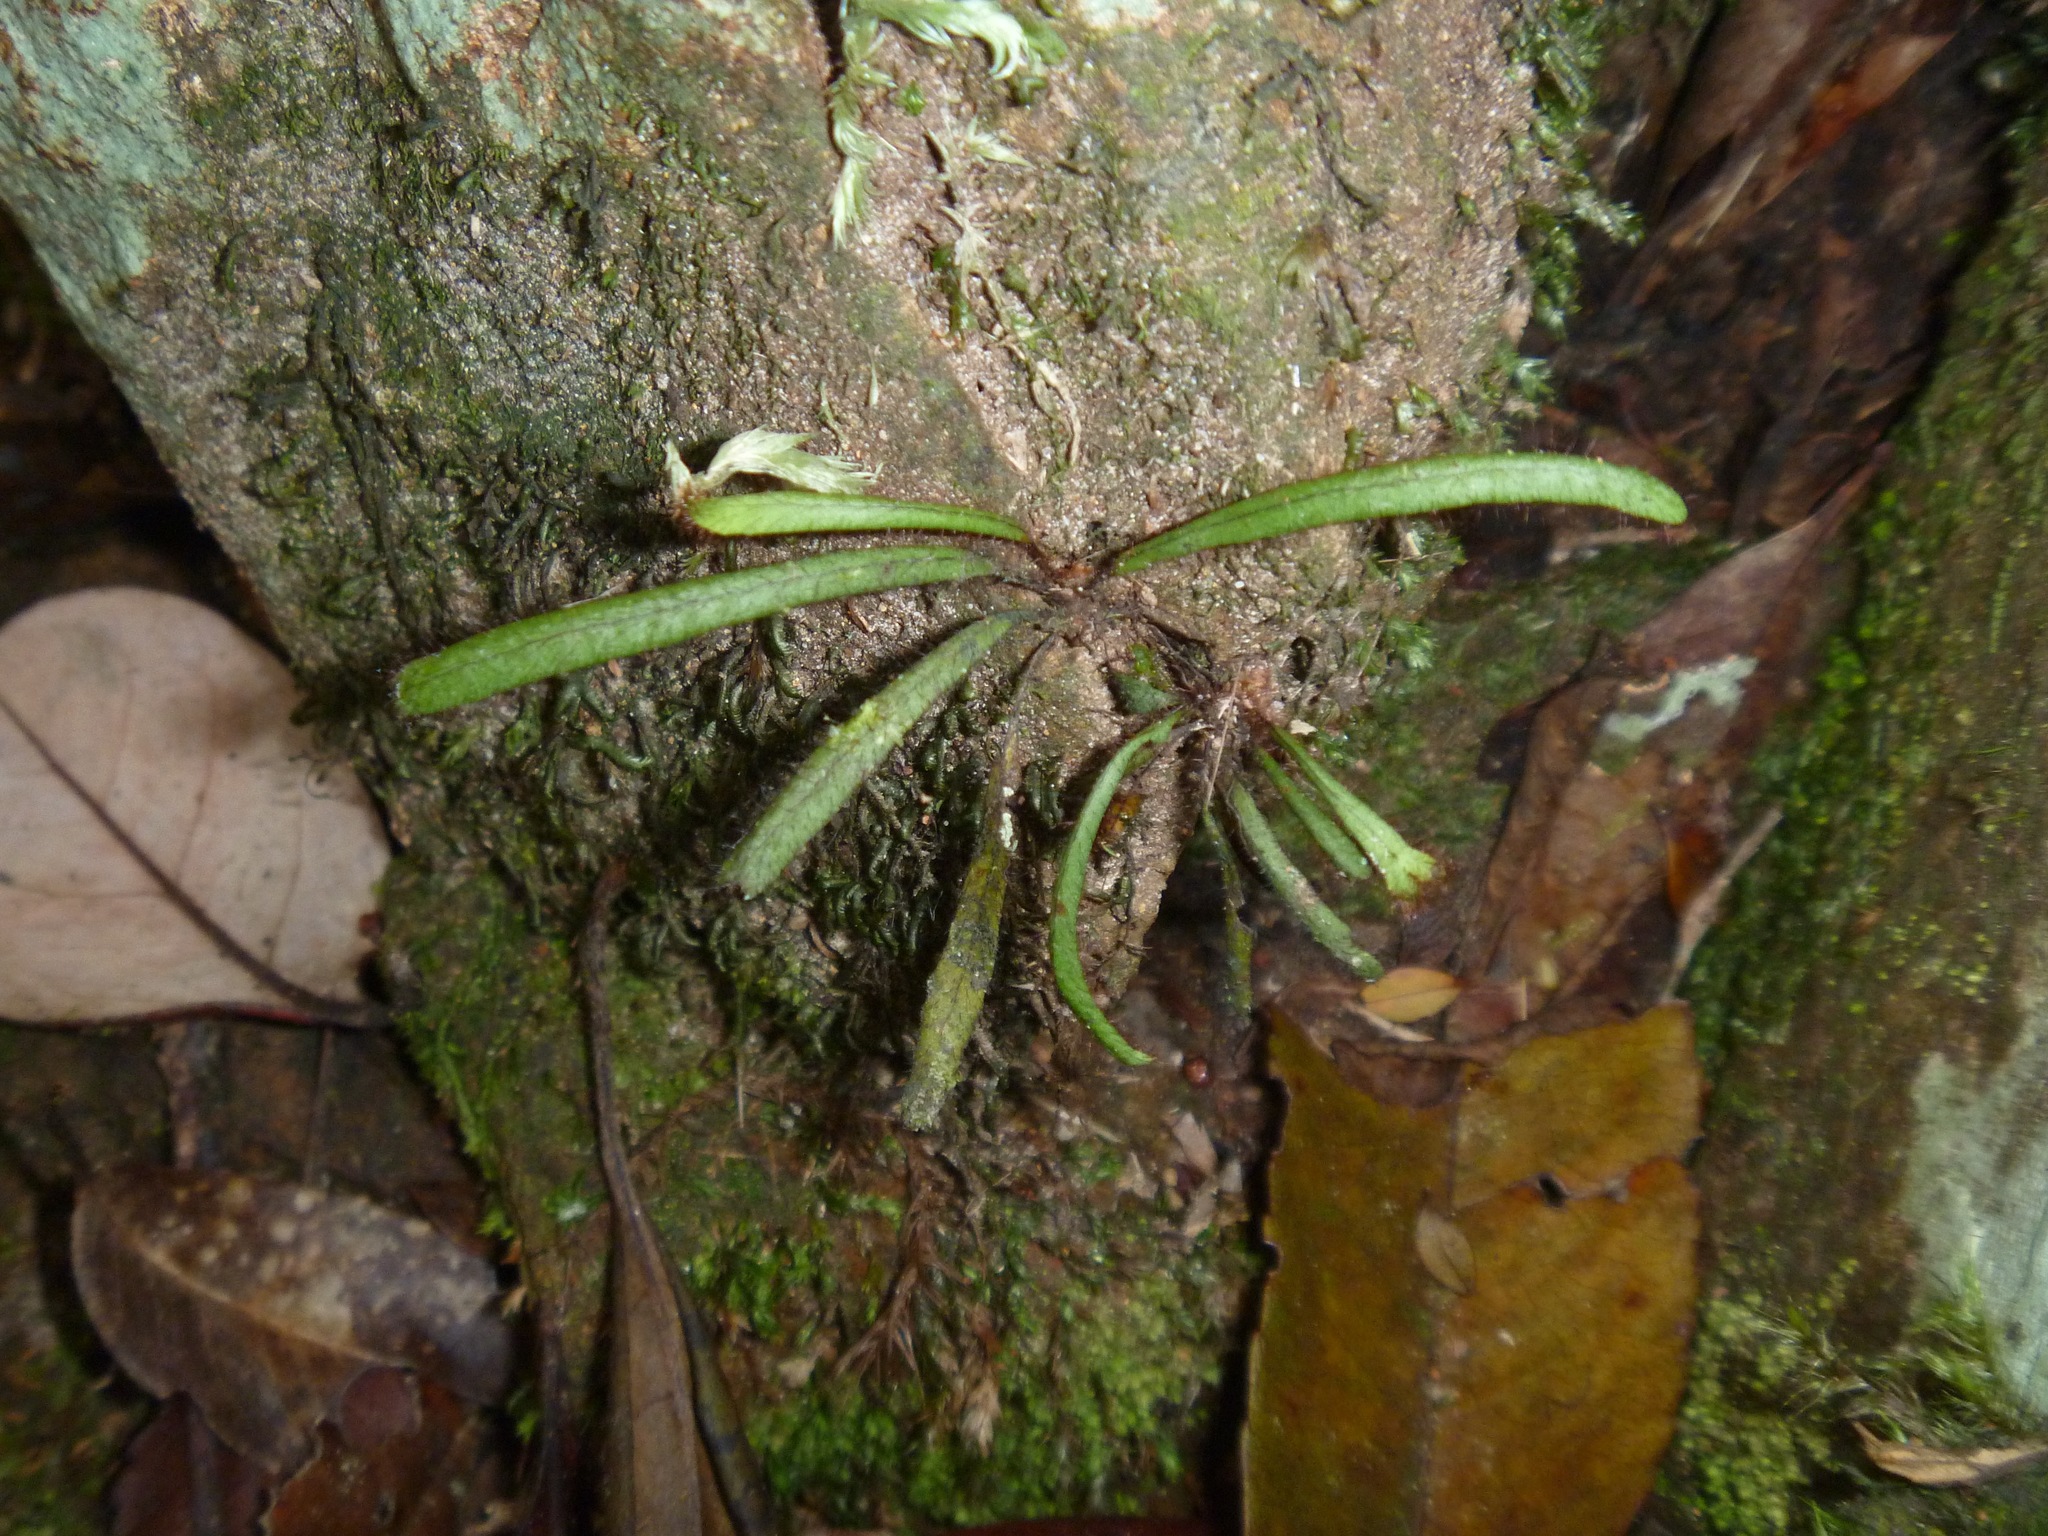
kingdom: Plantae
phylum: Tracheophyta
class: Polypodiopsida
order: Polypodiales
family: Polypodiaceae
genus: Oreogrammitis
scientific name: Oreogrammitis neocaledonica
